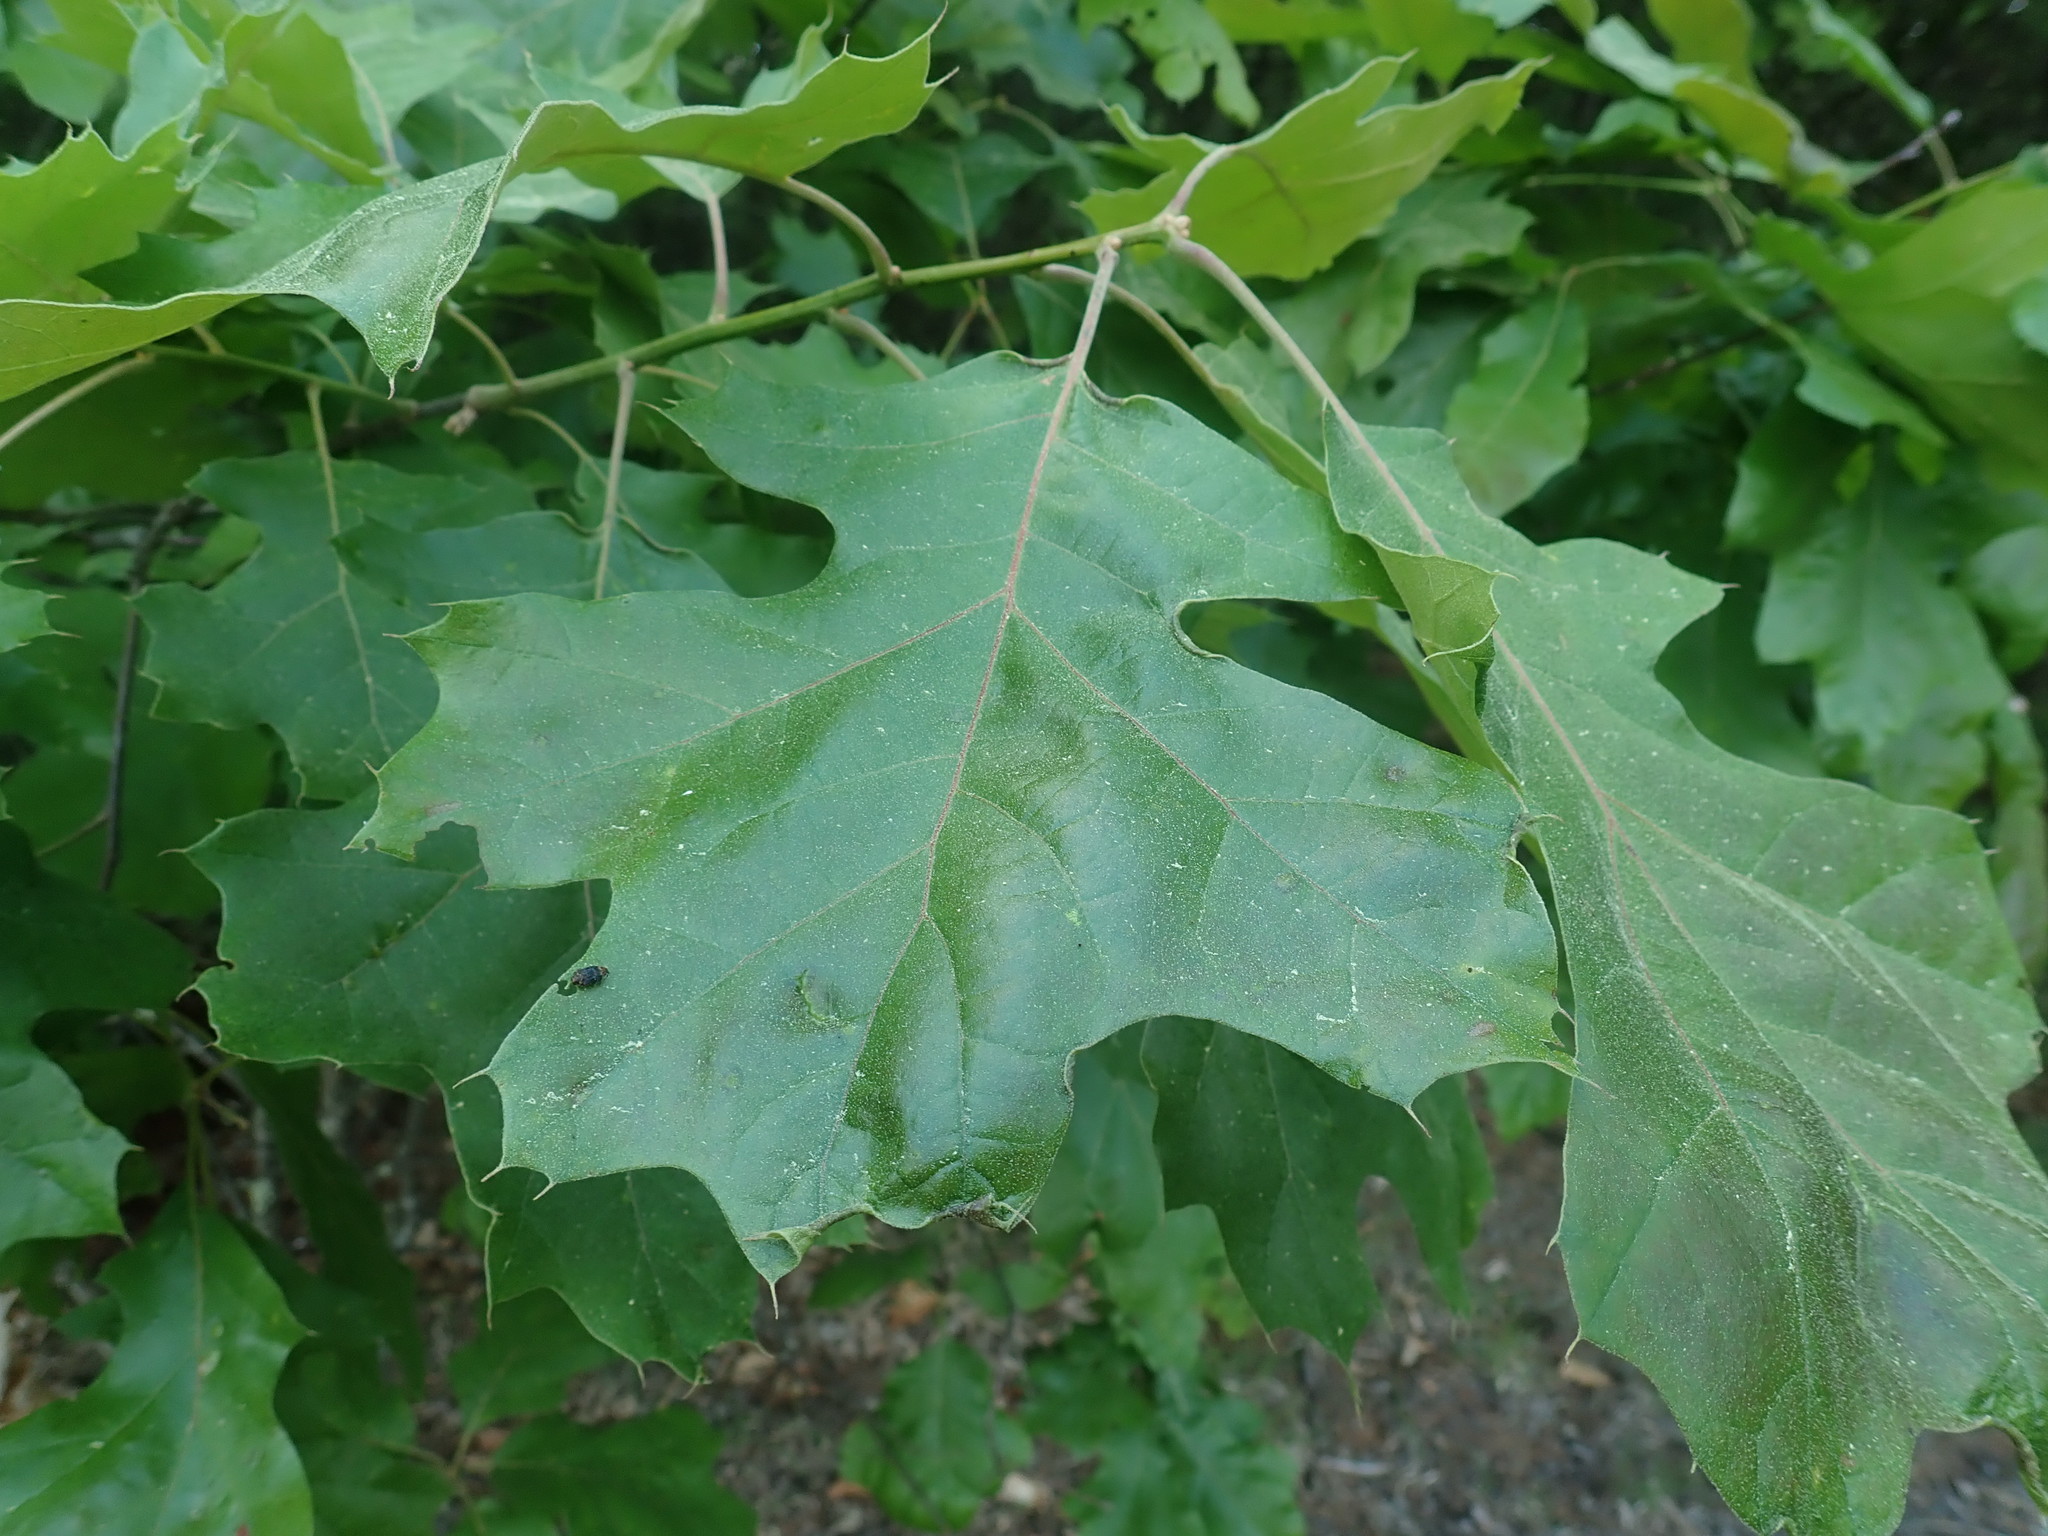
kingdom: Animalia
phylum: Arthropoda
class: Insecta
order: Coleoptera
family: Buprestidae
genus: Brachys
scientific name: Brachys aerosus
